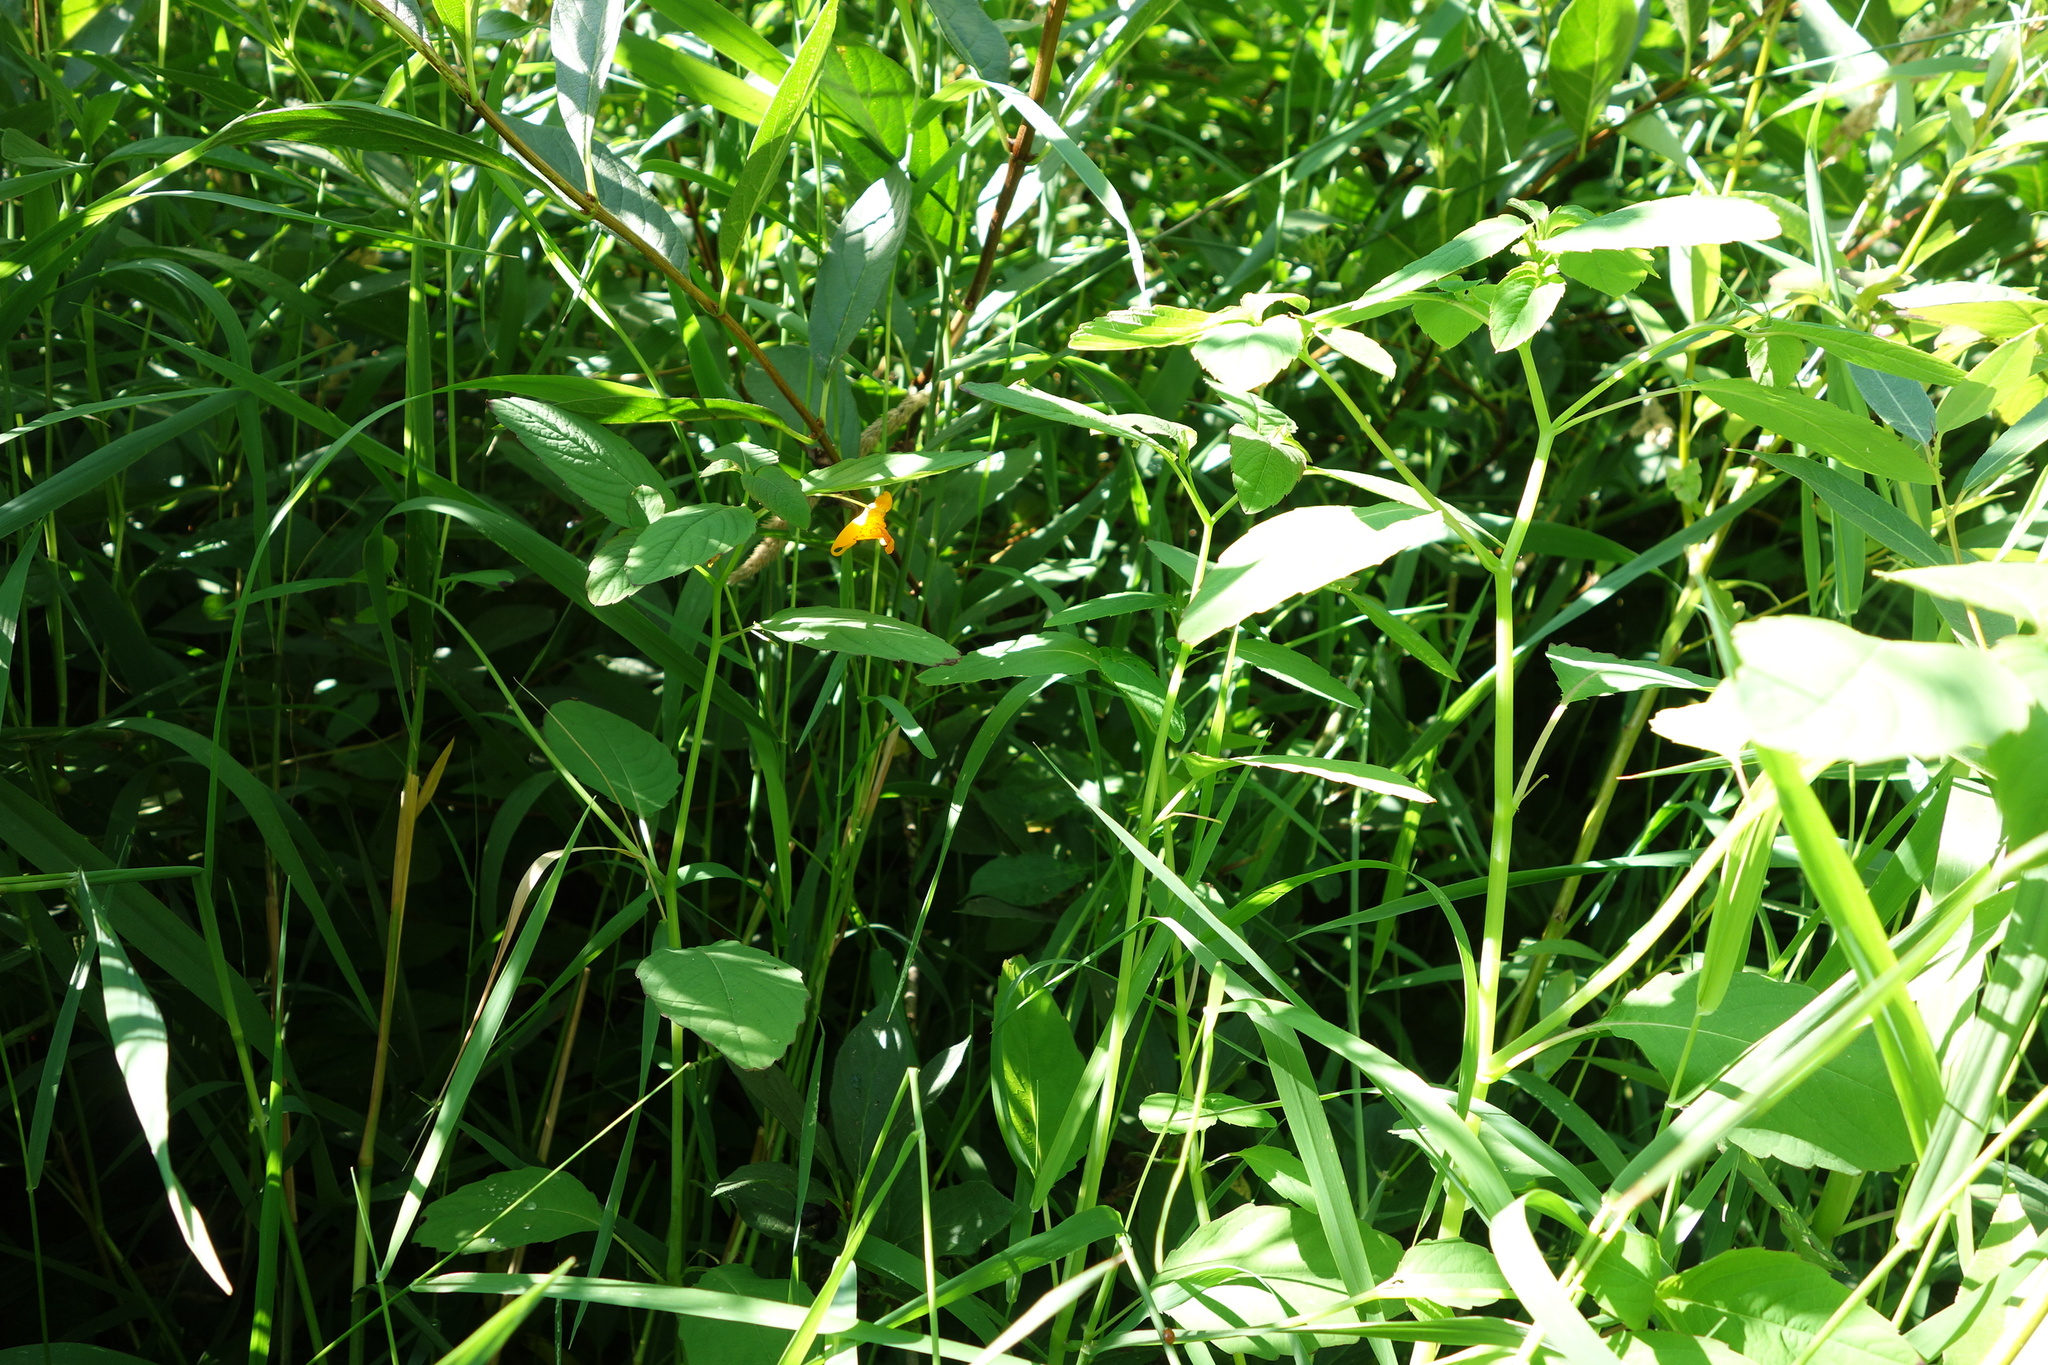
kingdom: Plantae
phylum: Tracheophyta
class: Magnoliopsida
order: Ericales
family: Balsaminaceae
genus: Impatiens
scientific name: Impatiens capensis
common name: Orange balsam
